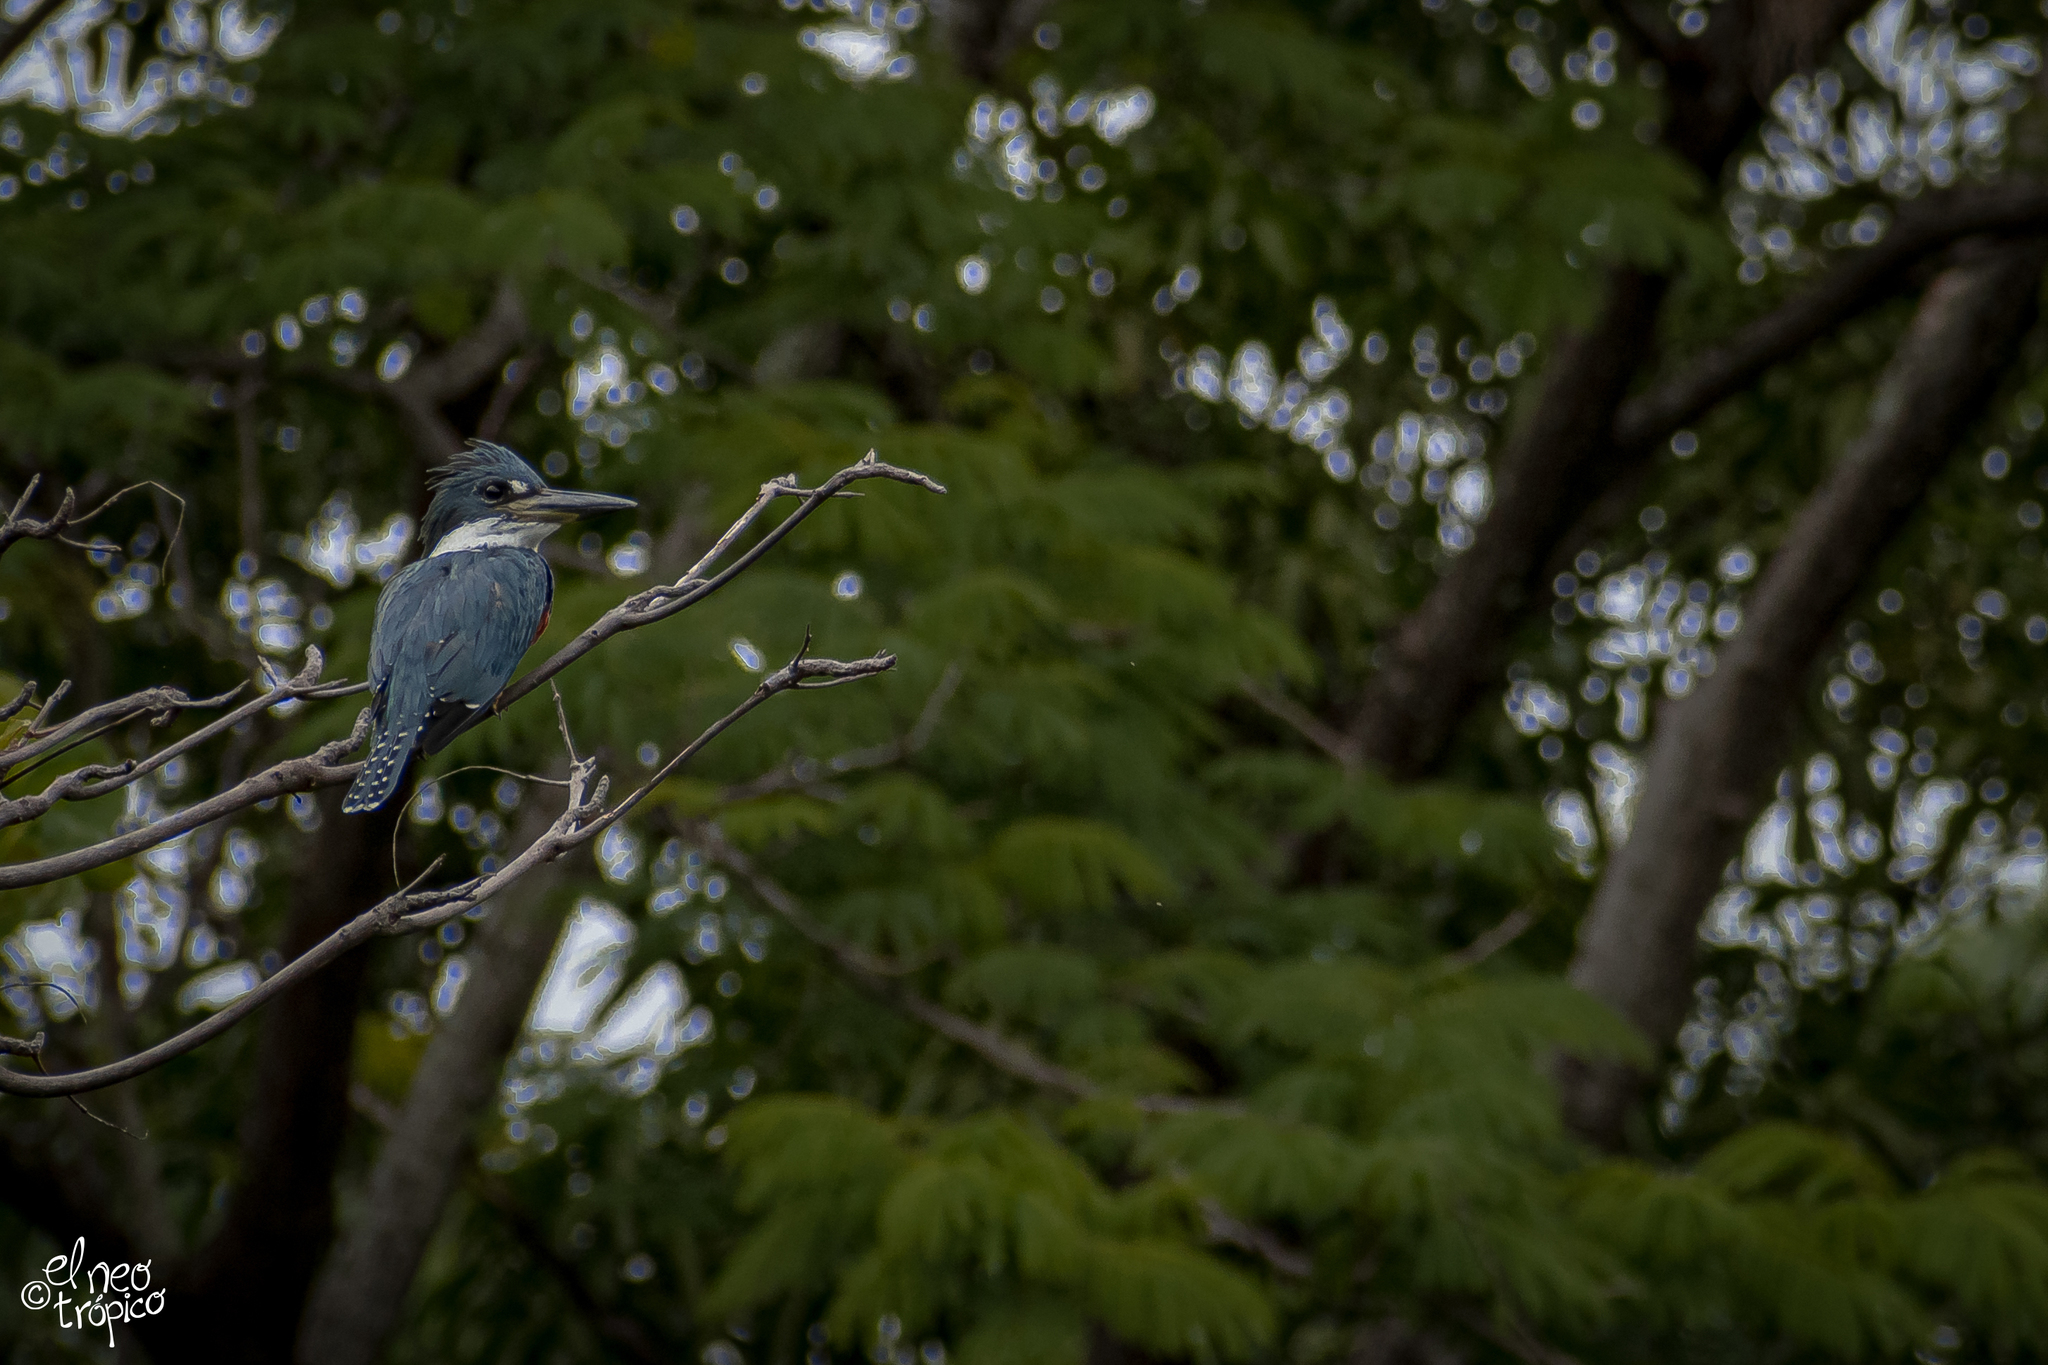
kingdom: Animalia
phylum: Chordata
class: Aves
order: Coraciiformes
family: Alcedinidae
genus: Megaceryle
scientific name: Megaceryle torquata
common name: Ringed kingfisher
